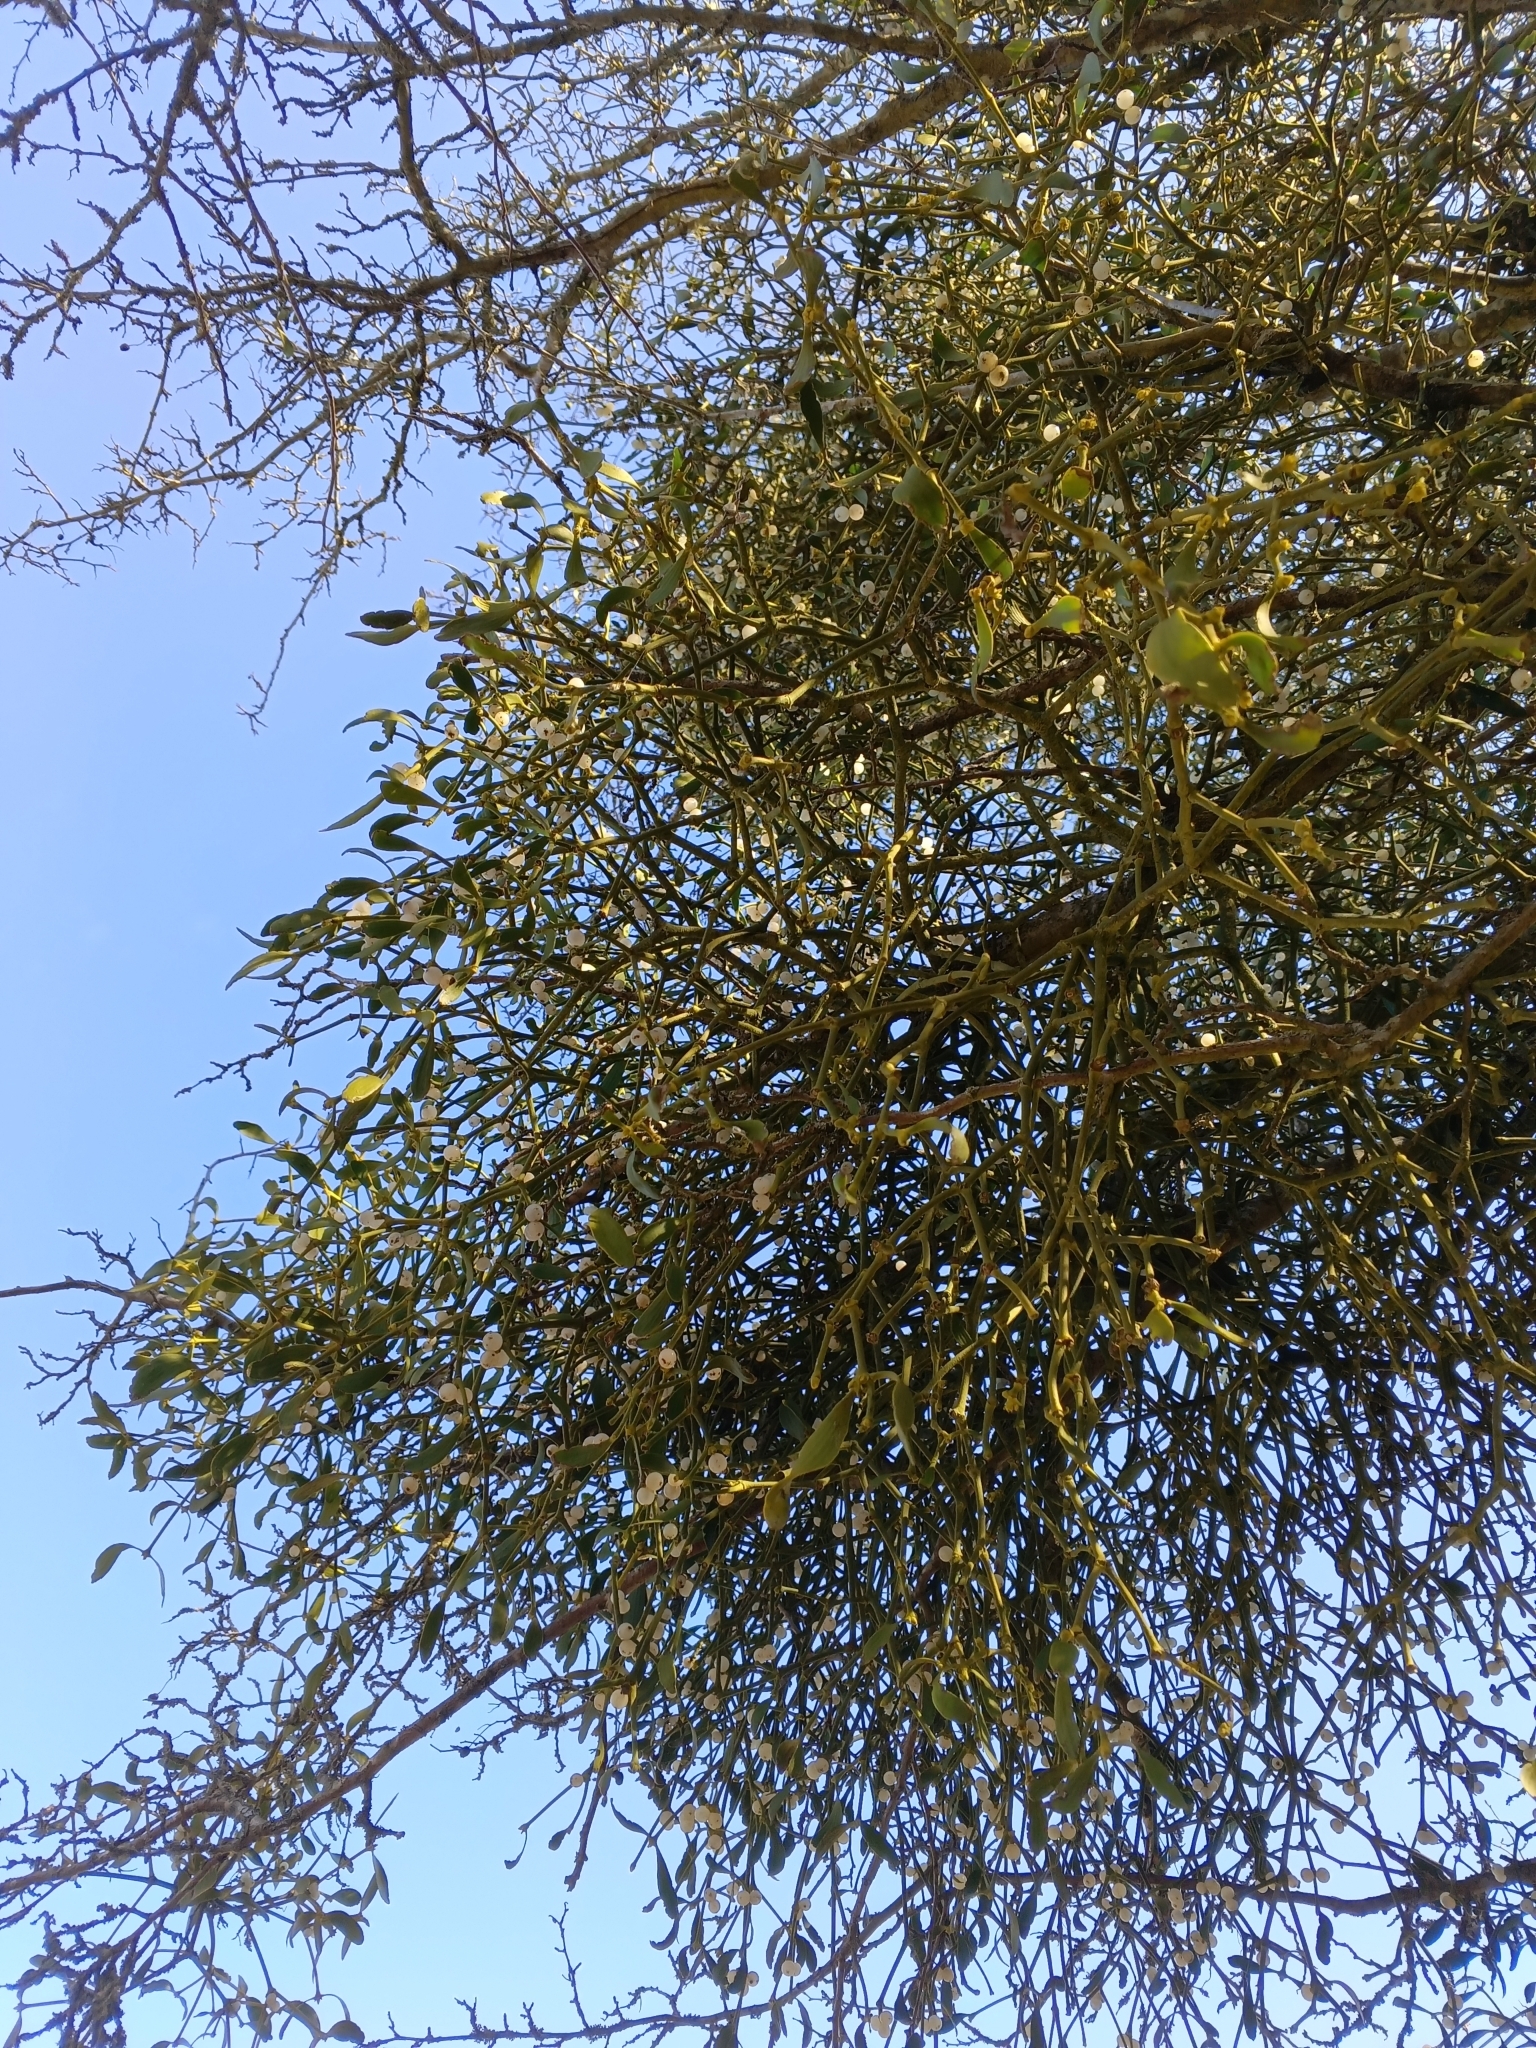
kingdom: Plantae
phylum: Tracheophyta
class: Magnoliopsida
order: Santalales
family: Viscaceae
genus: Viscum
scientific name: Viscum album
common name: Mistletoe
